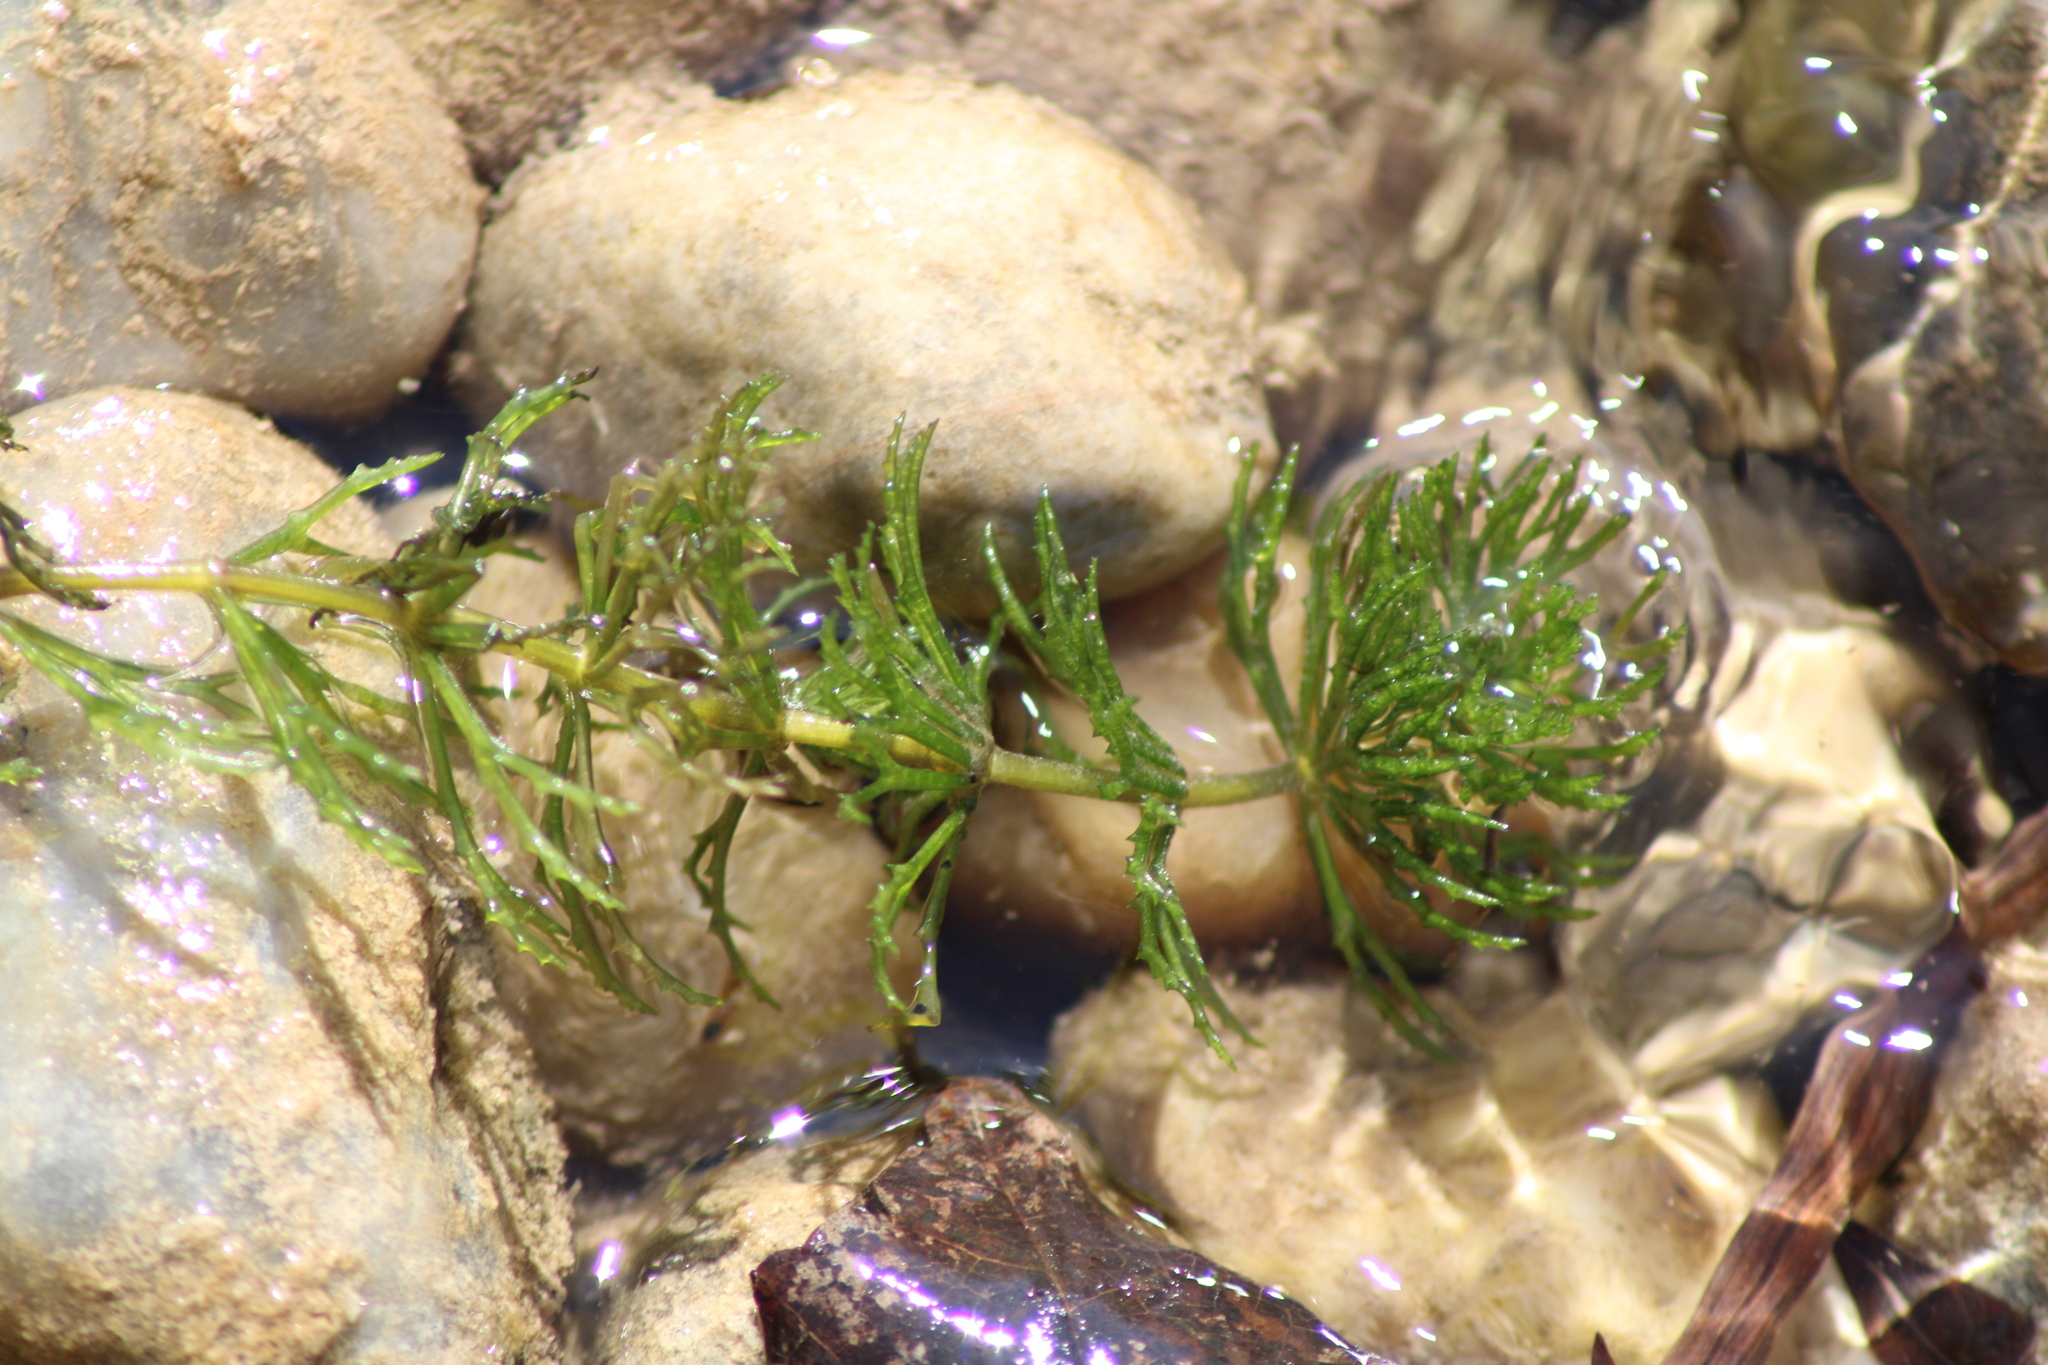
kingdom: Plantae
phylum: Tracheophyta
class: Magnoliopsida
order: Ceratophyllales
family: Ceratophyllaceae
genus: Ceratophyllum
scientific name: Ceratophyllum demersum
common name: Rigid hornwort
